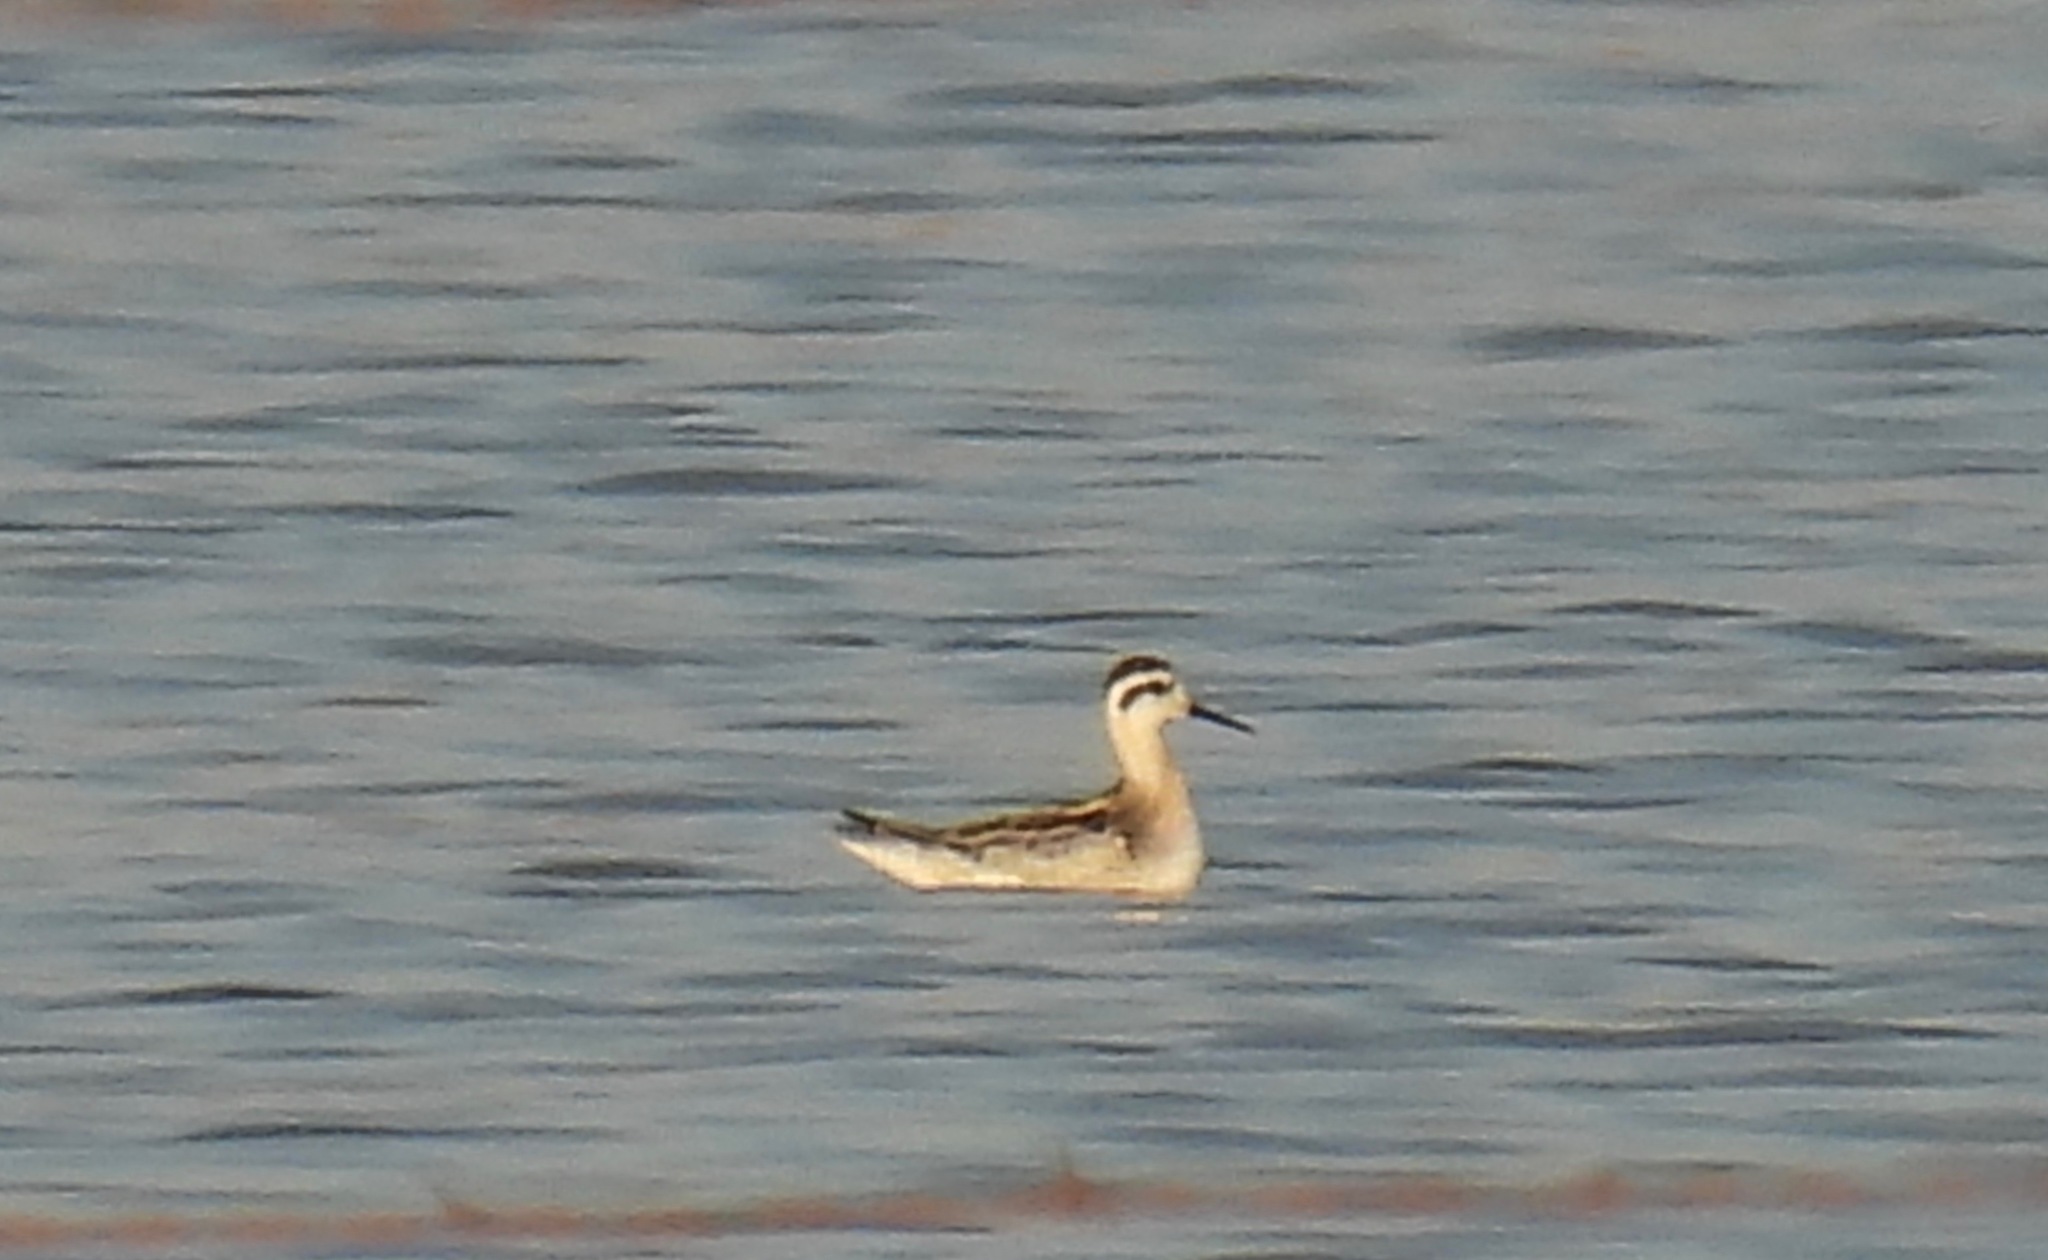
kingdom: Animalia
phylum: Chordata
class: Aves
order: Charadriiformes
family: Scolopacidae
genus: Phalaropus
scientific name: Phalaropus lobatus
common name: Red-necked phalarope
